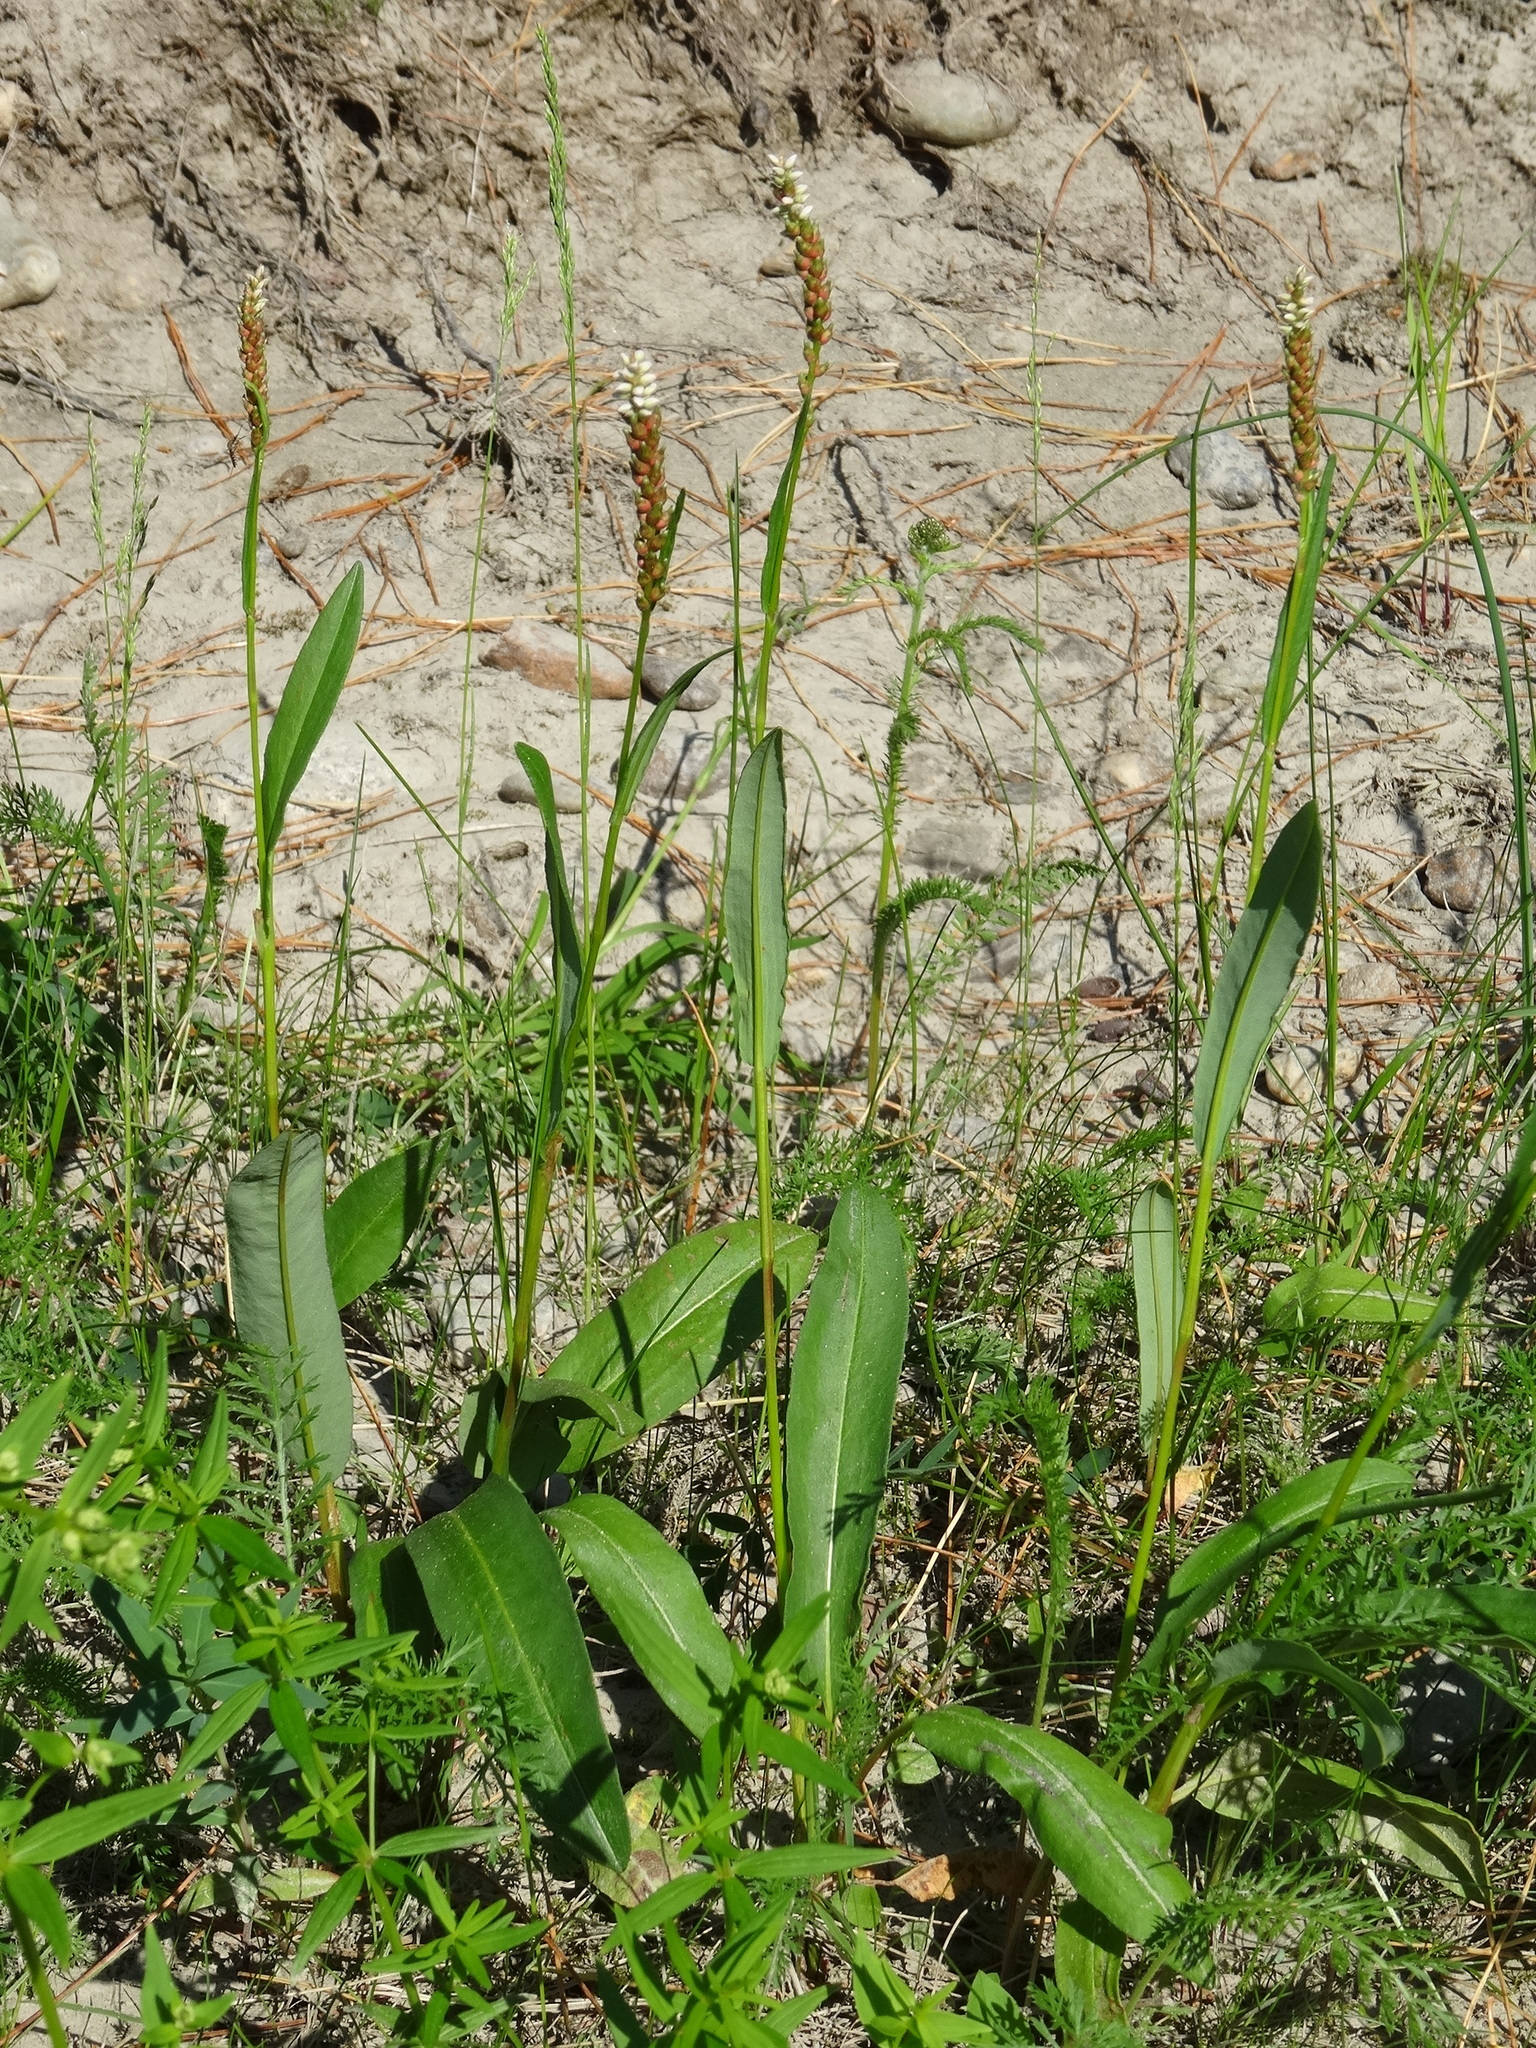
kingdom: Plantae
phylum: Tracheophyta
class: Magnoliopsida
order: Caryophyllales
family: Polygonaceae
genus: Bistorta
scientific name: Bistorta vivipara
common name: Alpine bistort
